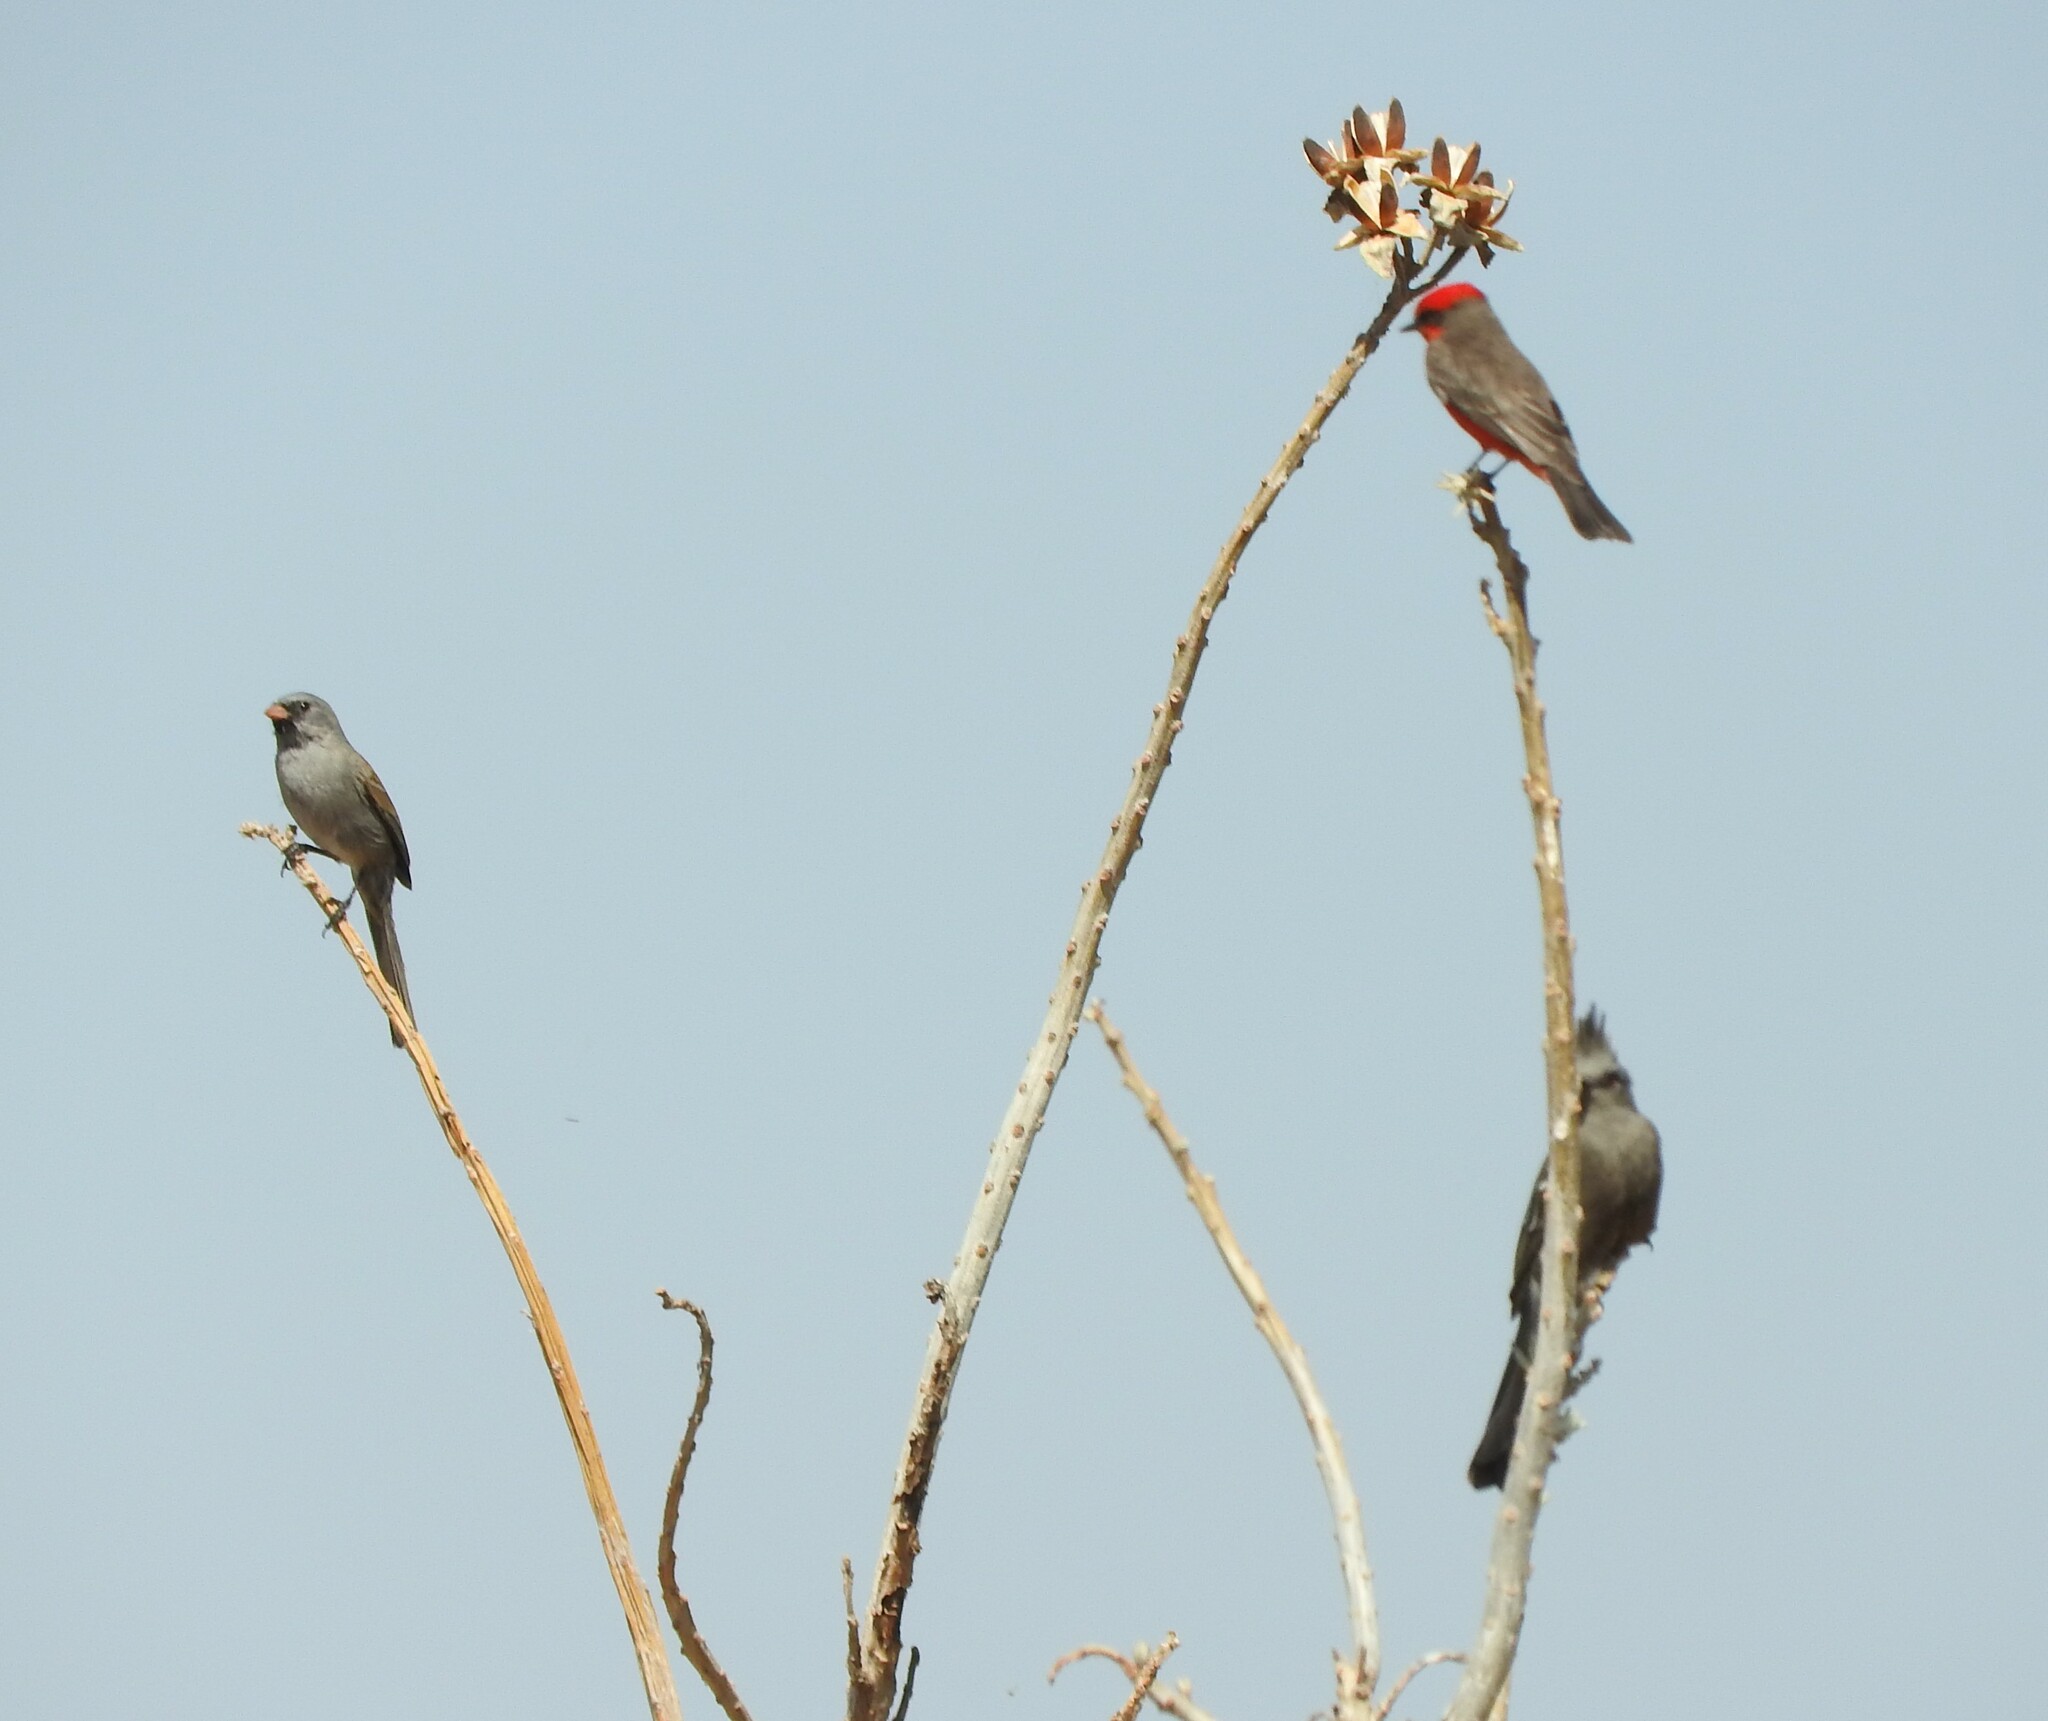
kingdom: Animalia
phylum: Chordata
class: Aves
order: Passeriformes
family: Tyrannidae
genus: Pyrocephalus
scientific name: Pyrocephalus rubinus
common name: Vermilion flycatcher
